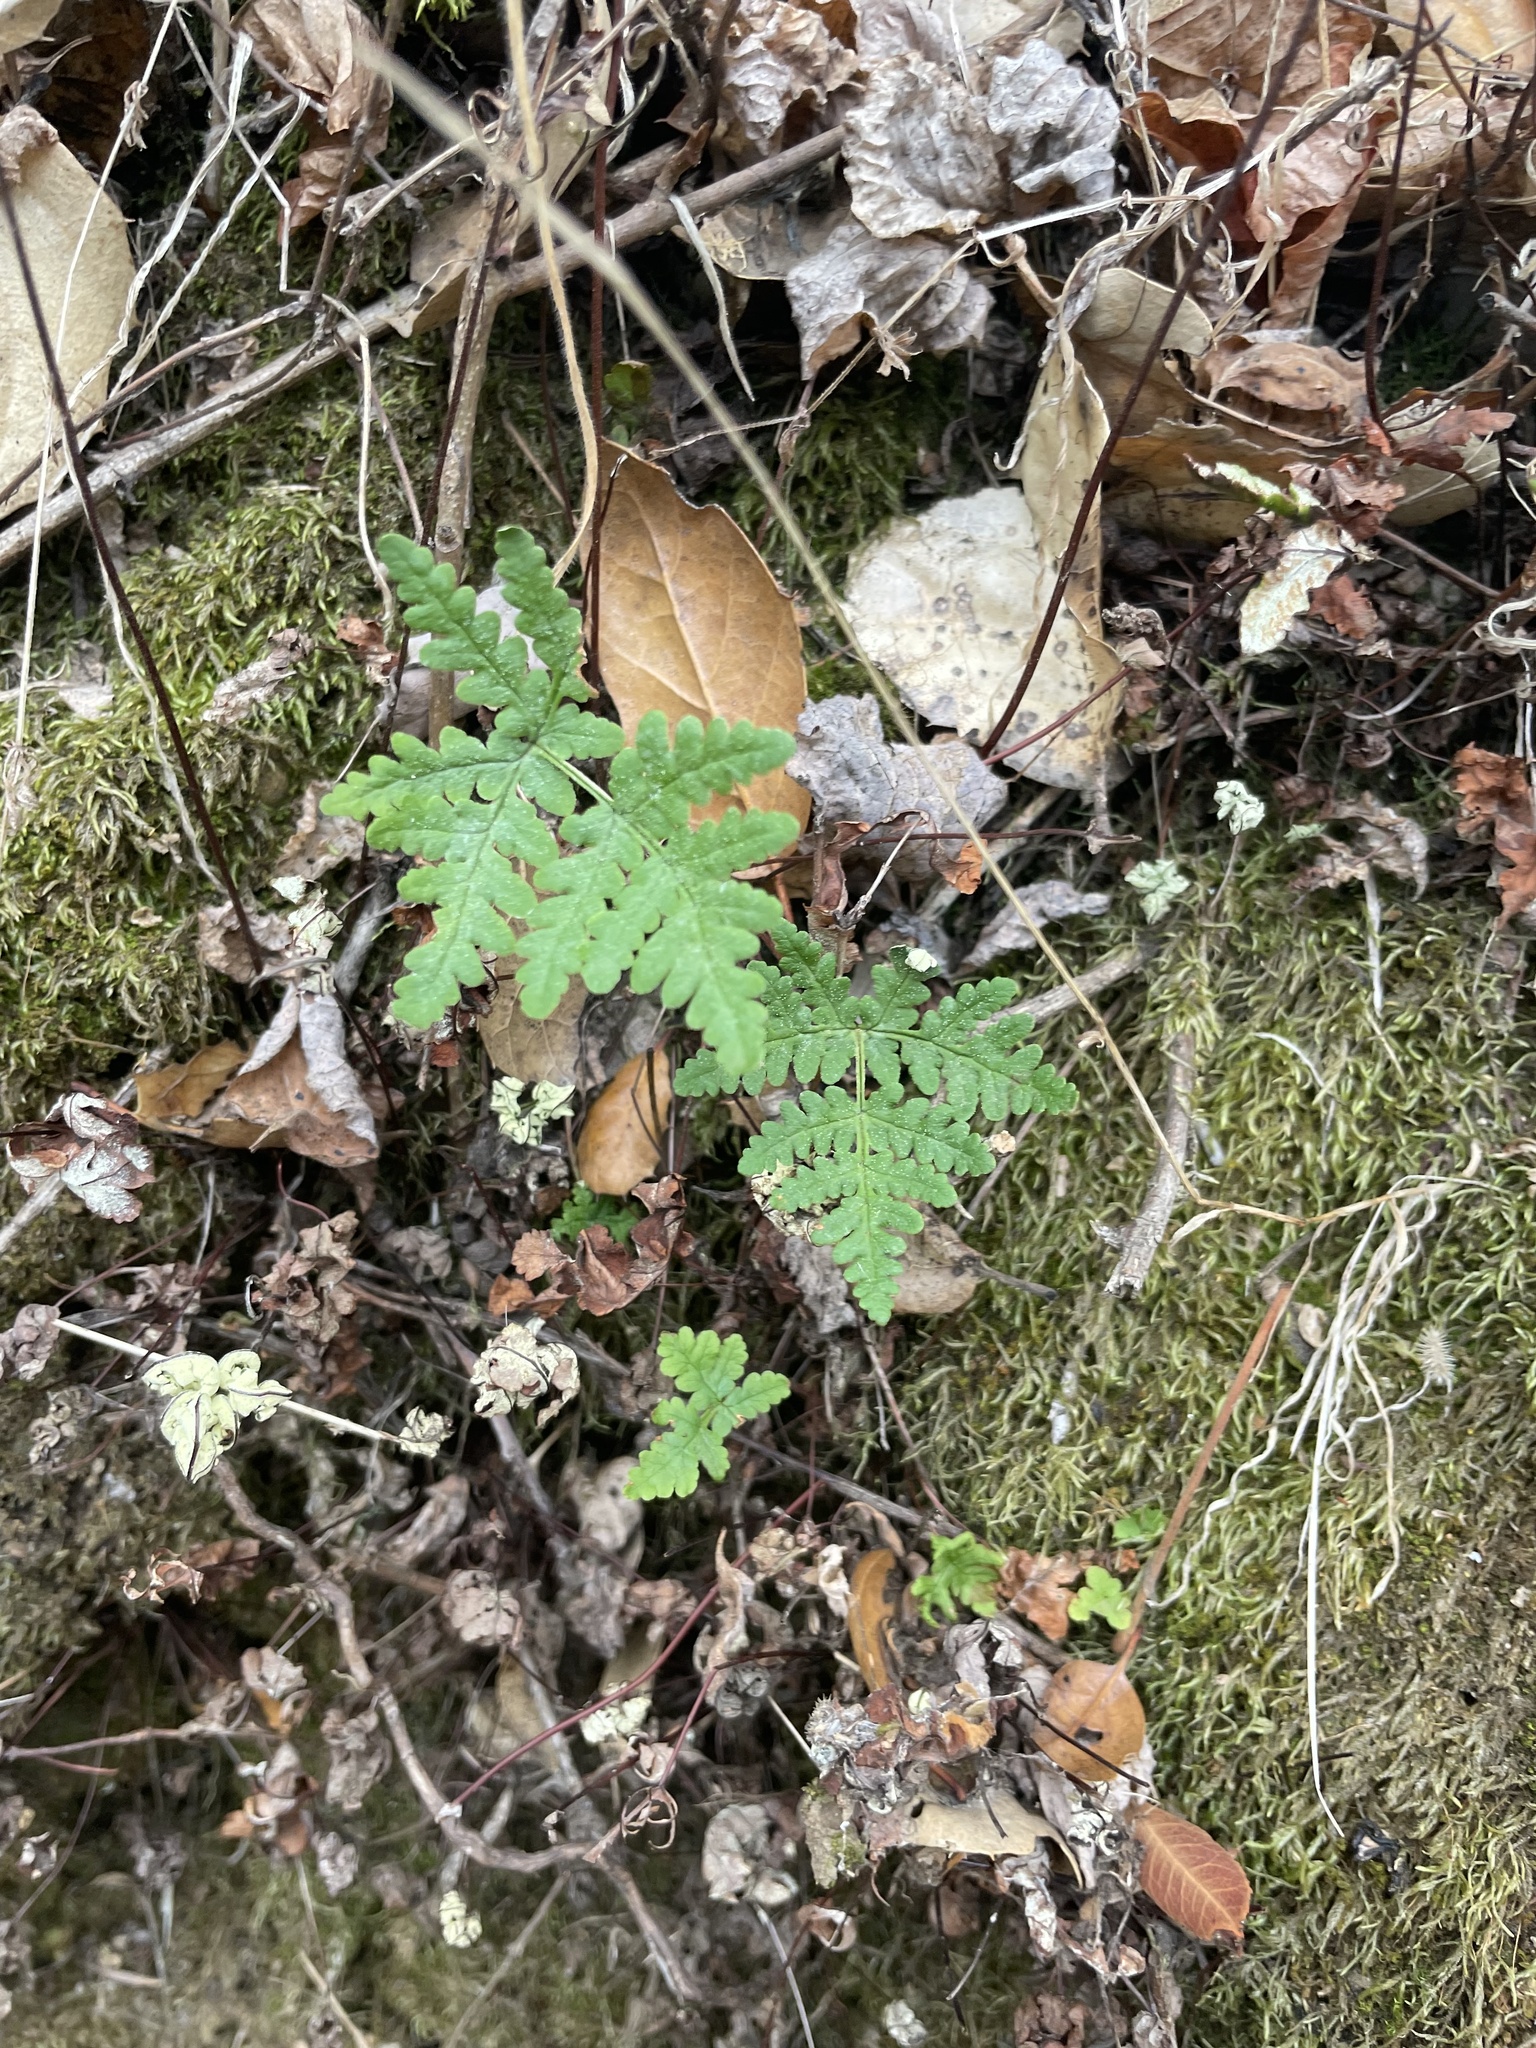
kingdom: Plantae
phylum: Tracheophyta
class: Polypodiopsida
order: Polypodiales
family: Pteridaceae
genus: Pentagramma
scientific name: Pentagramma triangularis
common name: Gold fern
